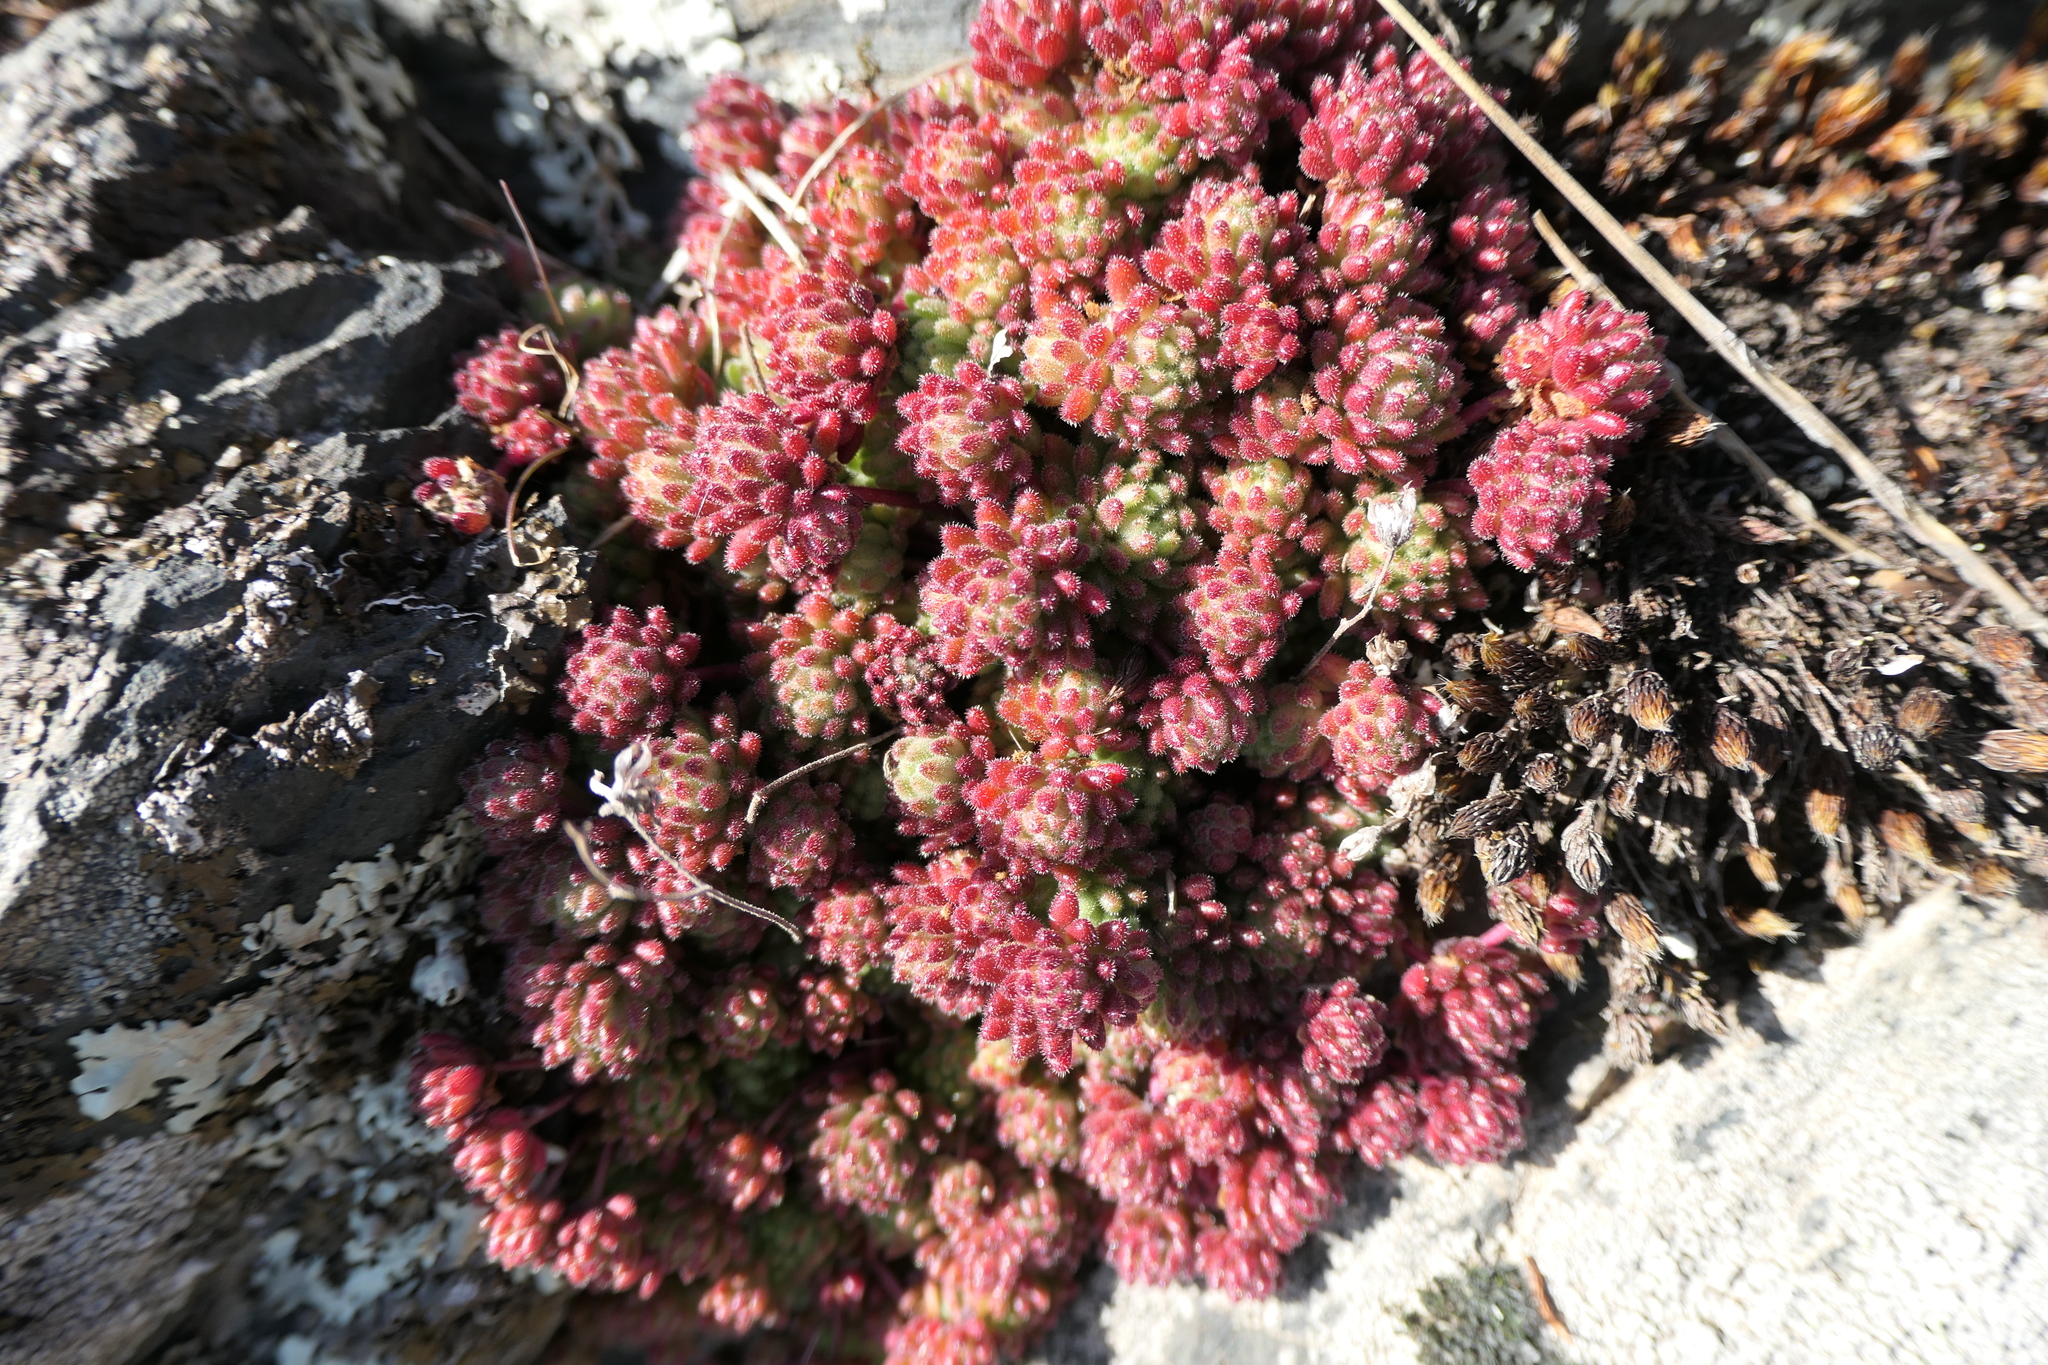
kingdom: Plantae
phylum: Tracheophyta
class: Magnoliopsida
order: Saxifragales
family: Crassulaceae
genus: Sedum
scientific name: Sedum hirsutum
